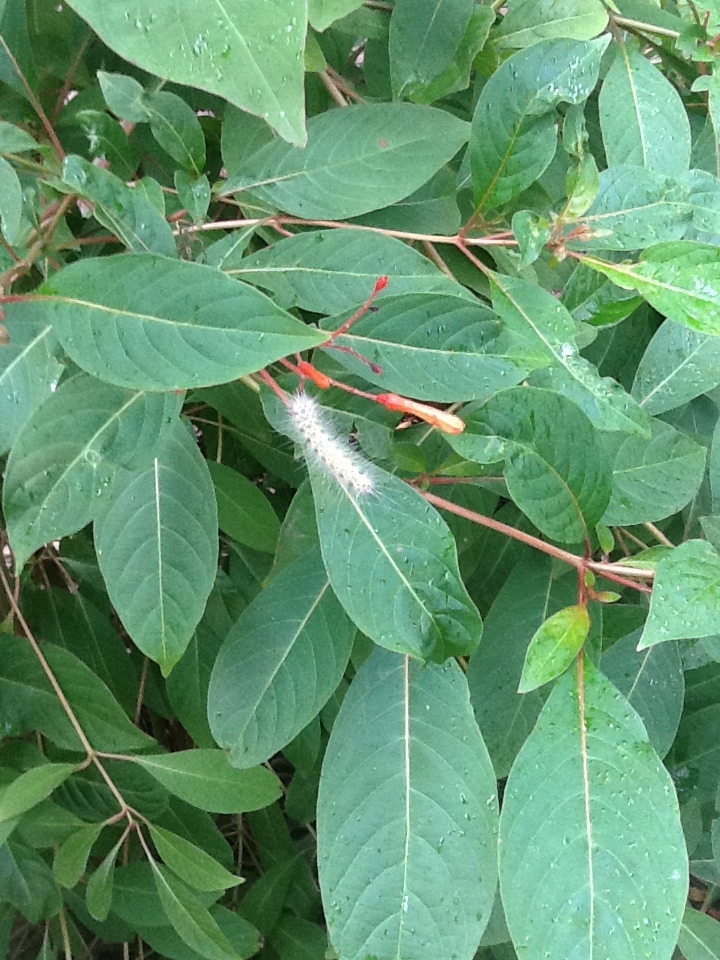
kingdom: Animalia
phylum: Arthropoda
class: Insecta
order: Lepidoptera
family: Erebidae
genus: Hyphantria
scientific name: Hyphantria cunea
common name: American white moth
